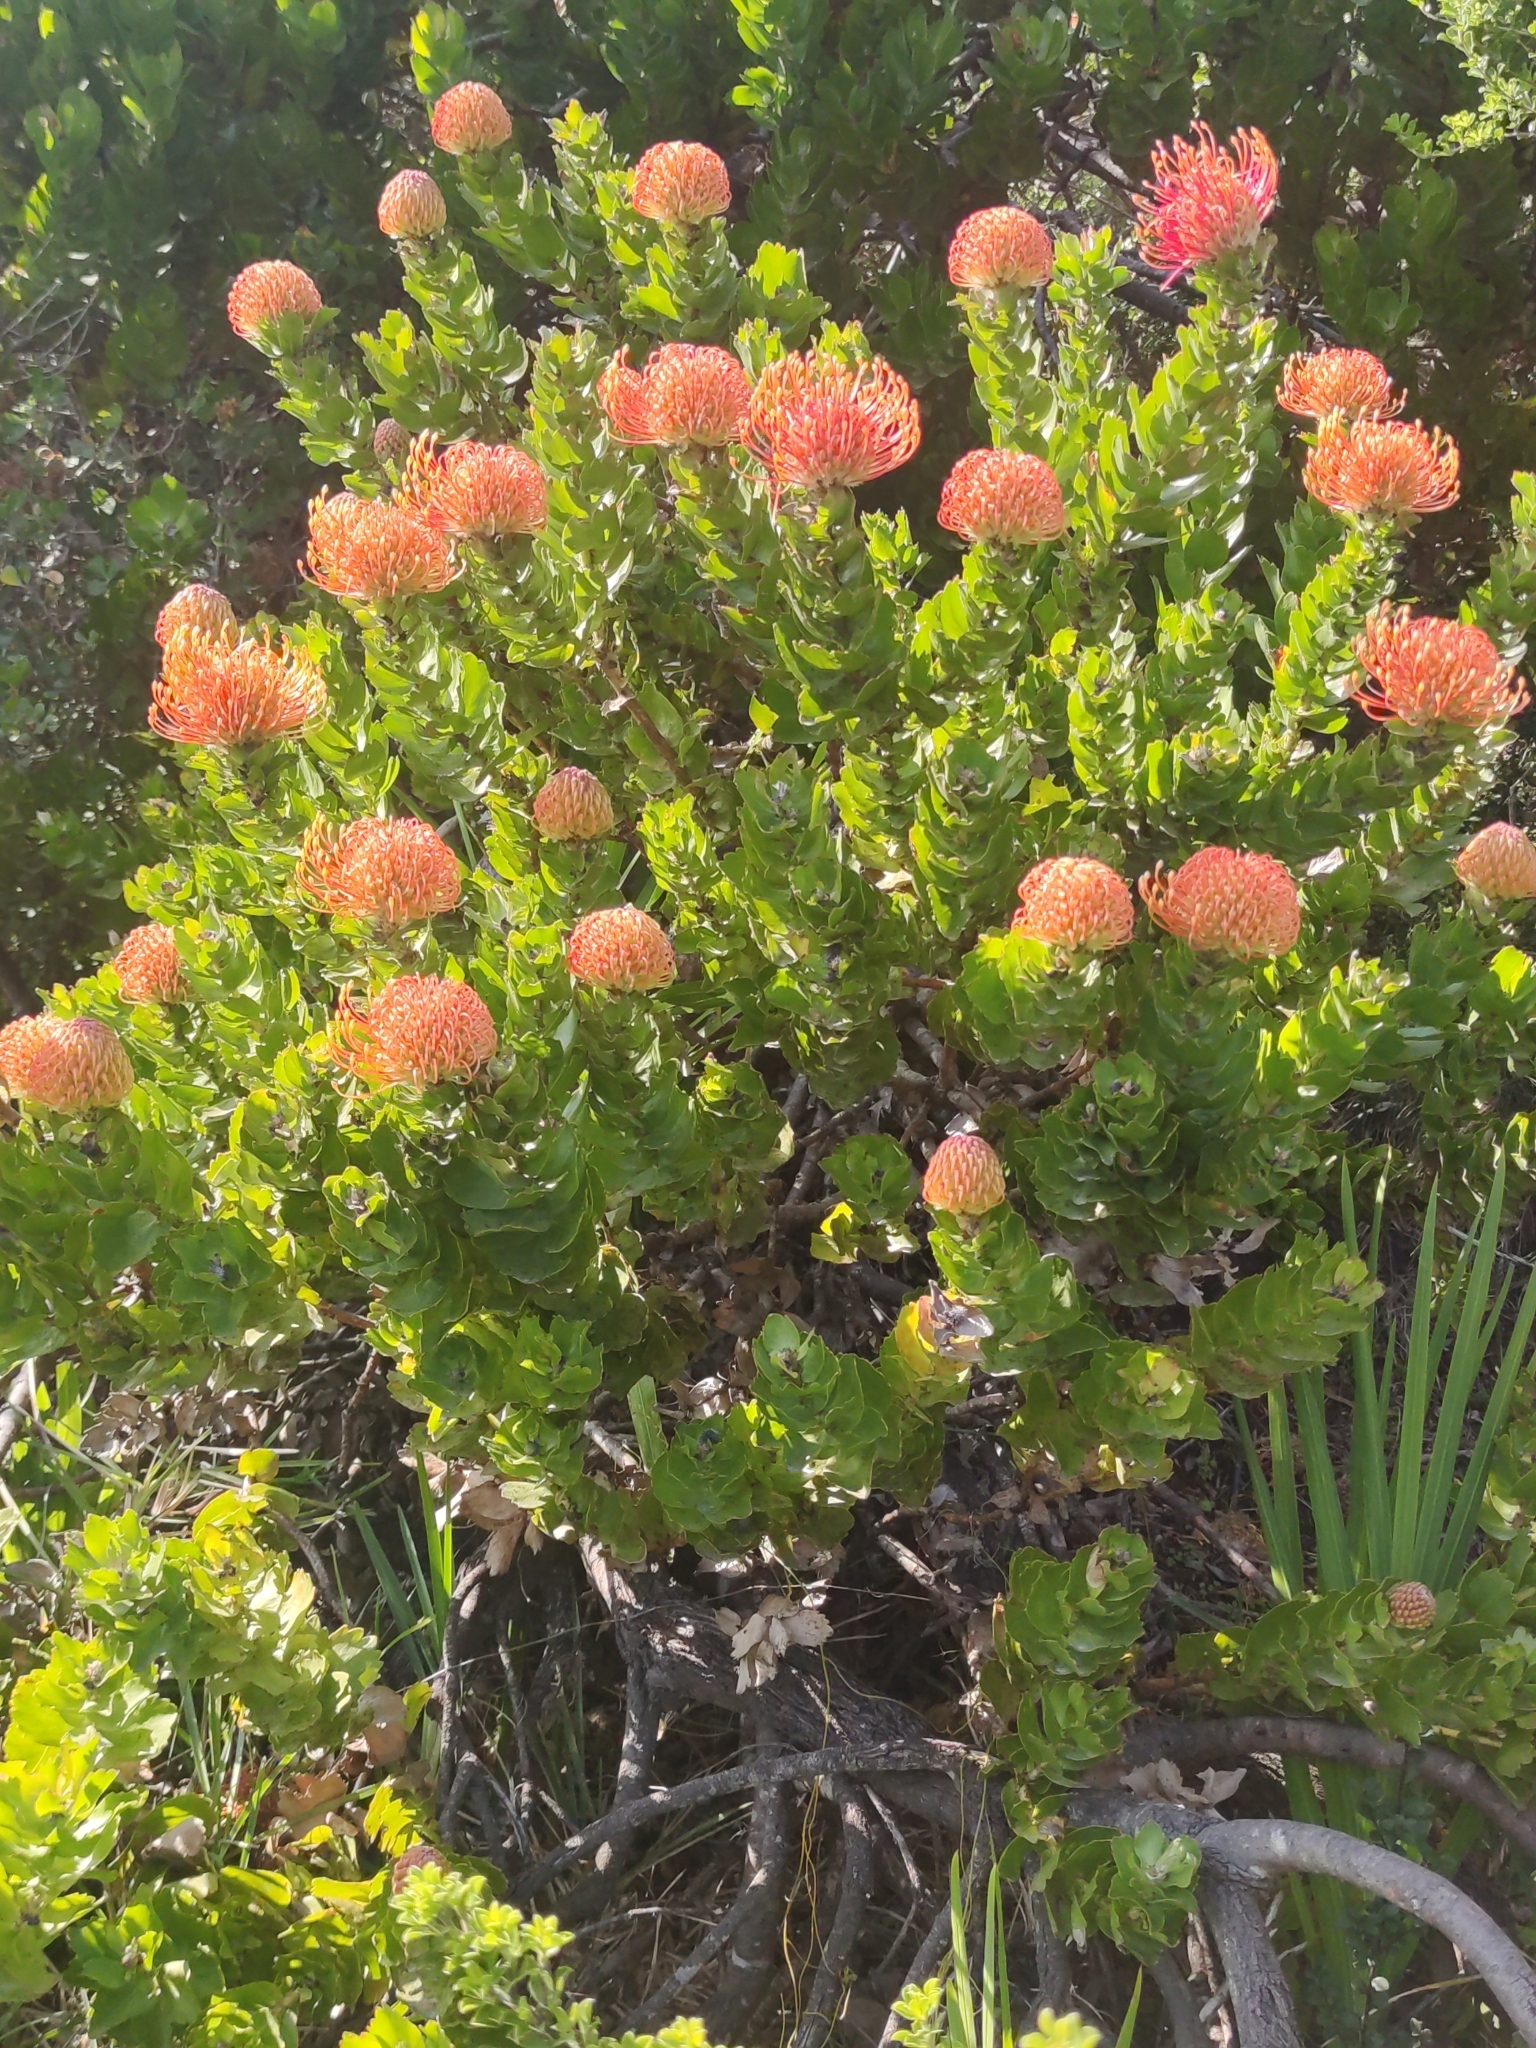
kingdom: Plantae
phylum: Tracheophyta
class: Magnoliopsida
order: Proteales
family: Proteaceae
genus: Leucospermum
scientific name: Leucospermum patersonii
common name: False tree pincushion
